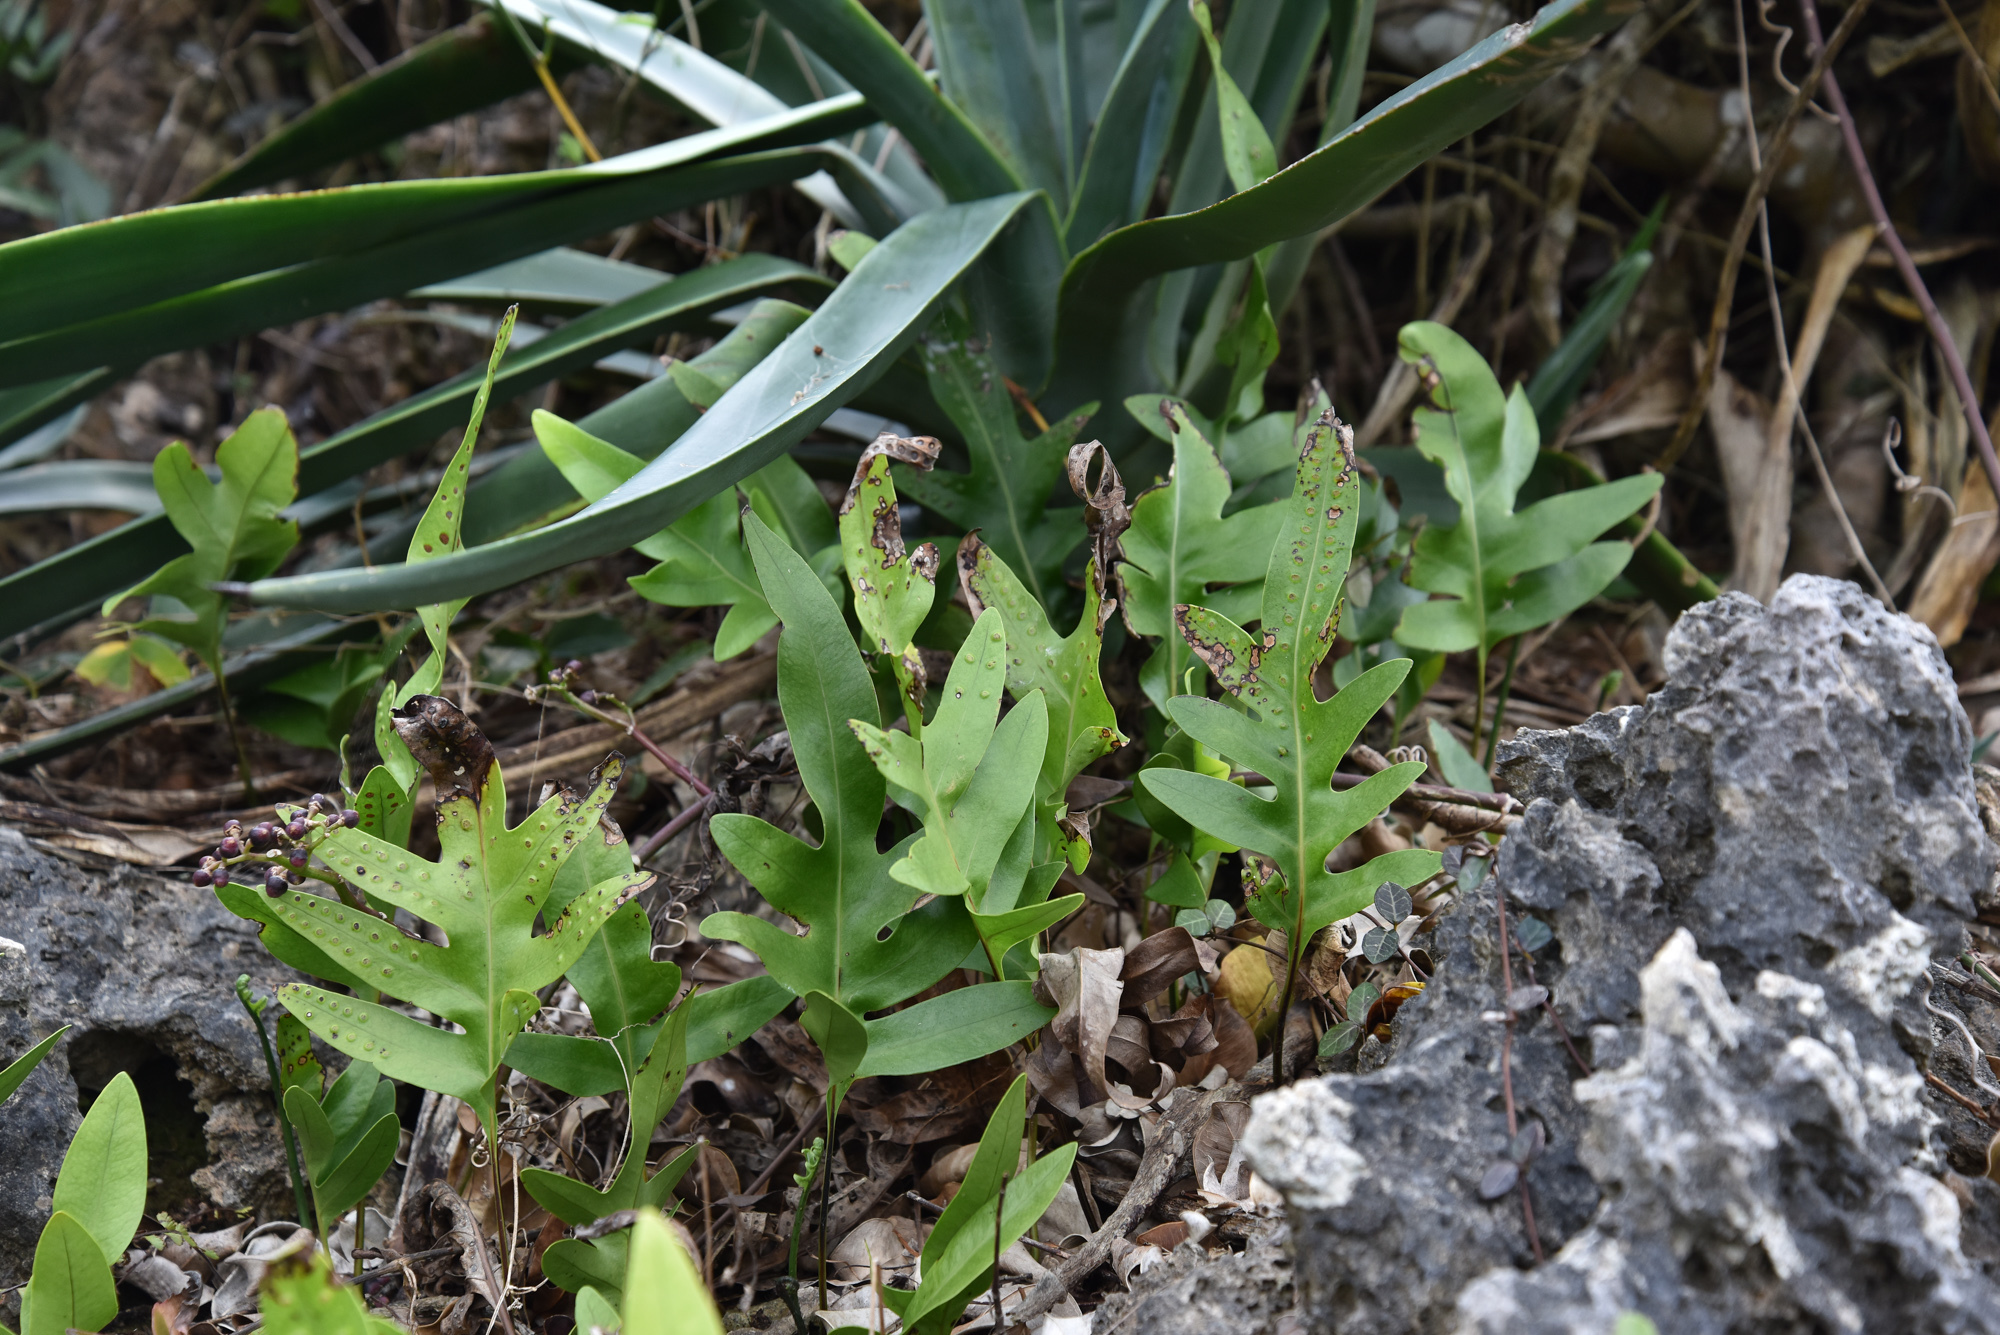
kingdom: Plantae
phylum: Tracheophyta
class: Polypodiopsida
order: Polypodiales
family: Polypodiaceae
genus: Microsorum
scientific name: Microsorum scolopendria
